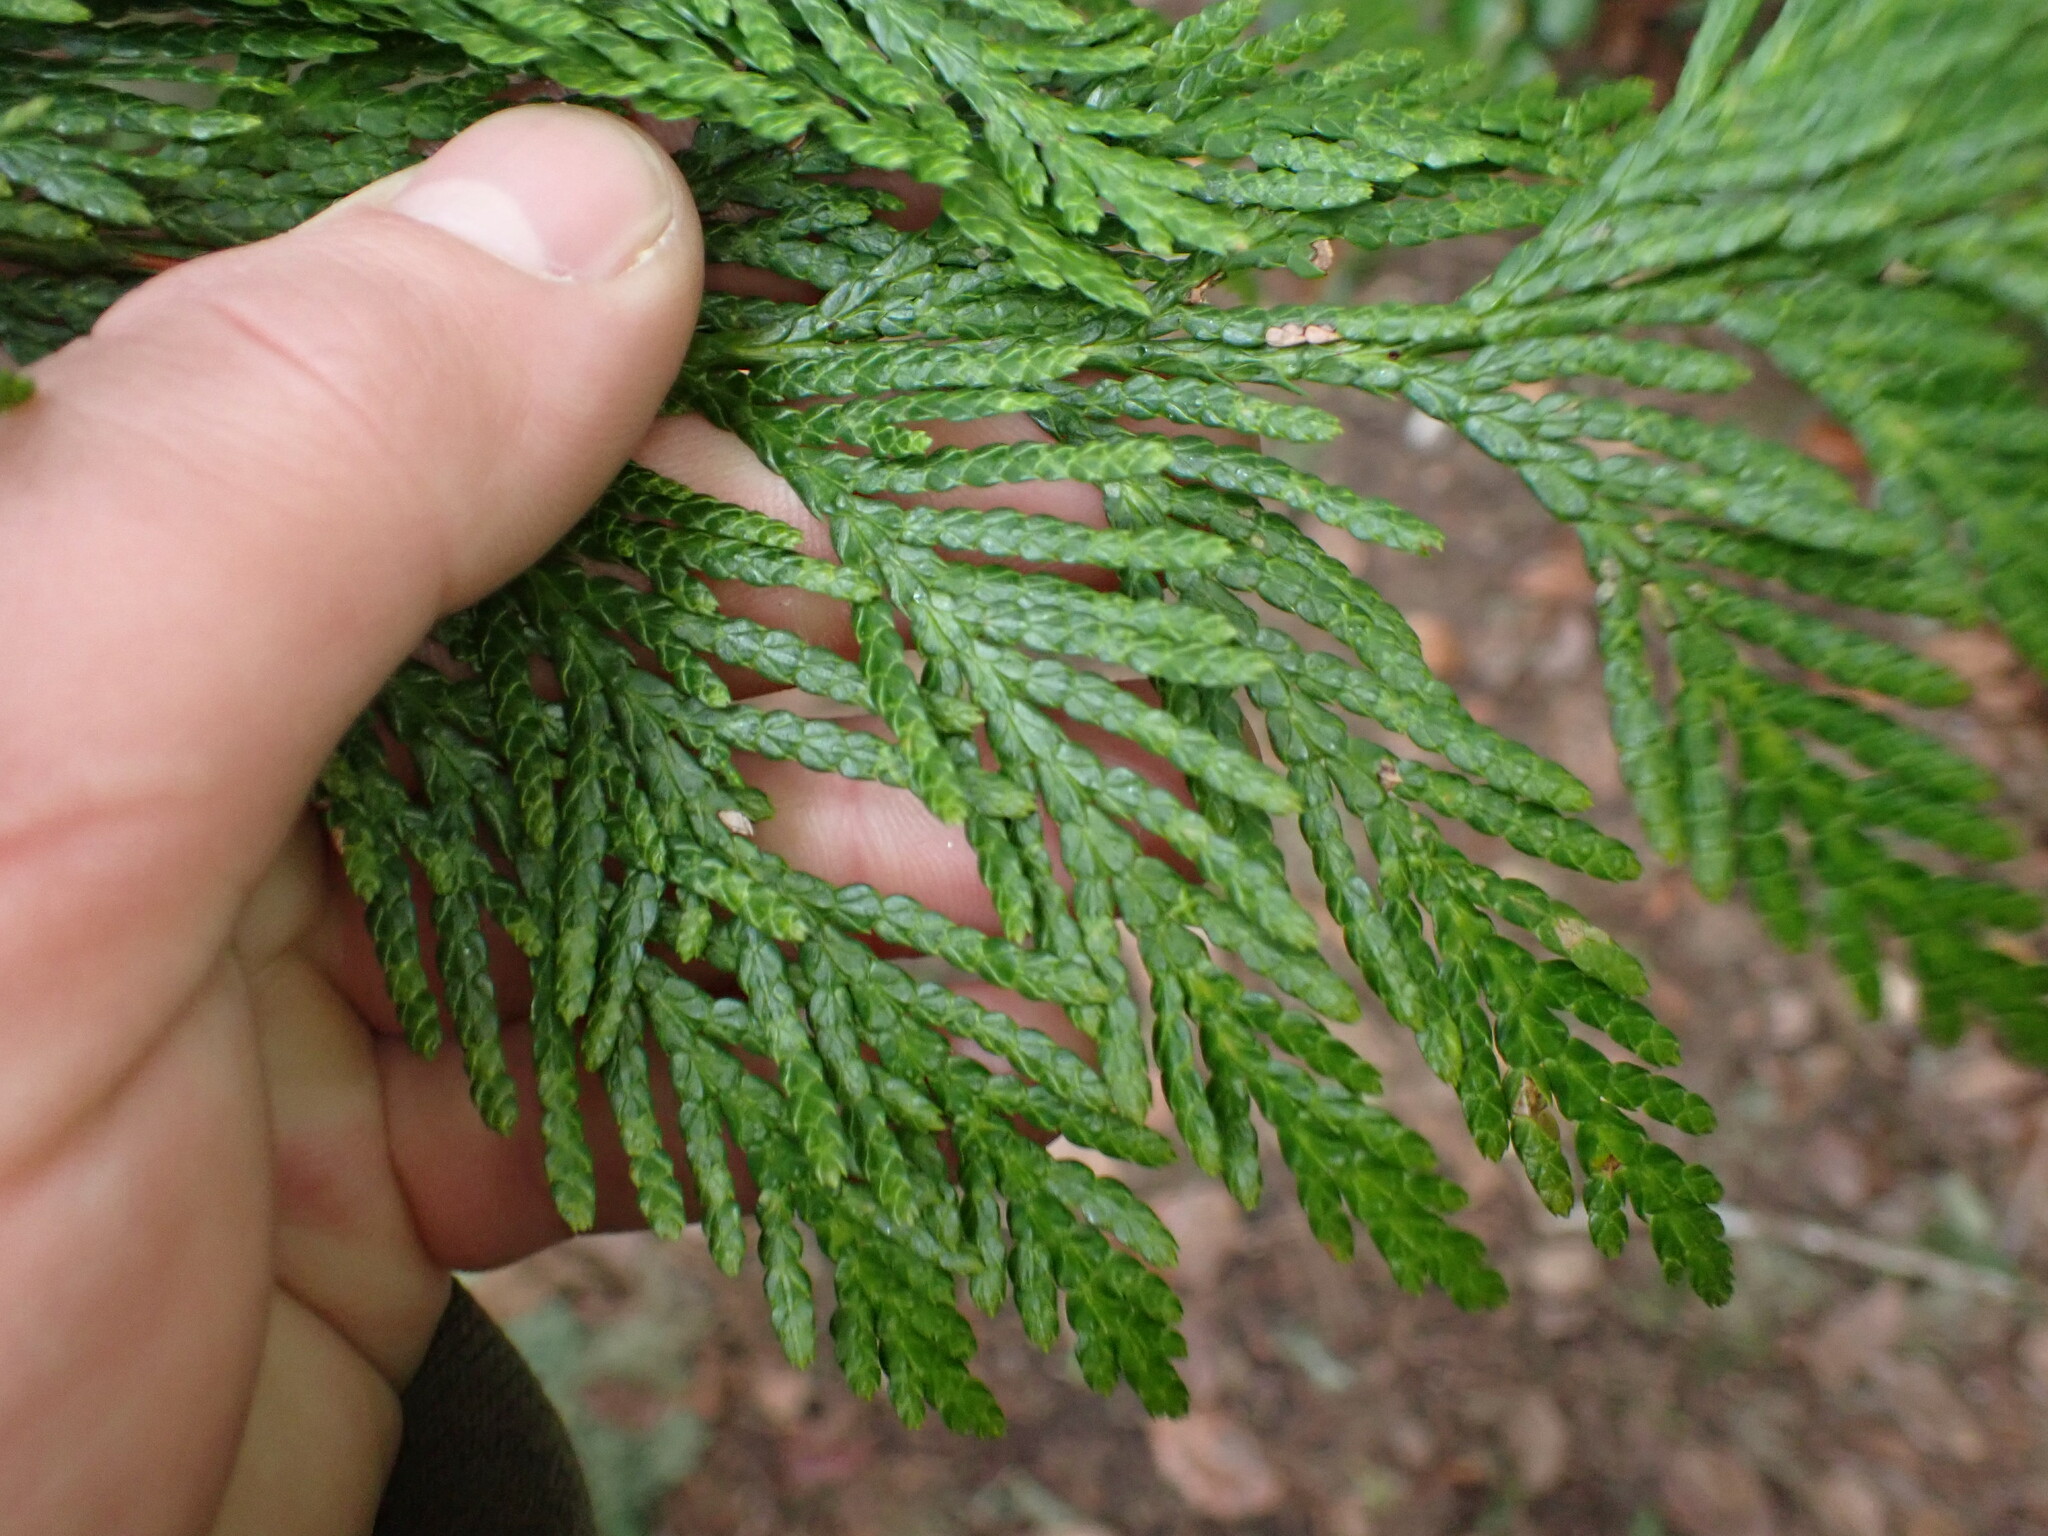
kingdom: Plantae
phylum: Tracheophyta
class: Pinopsida
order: Pinales
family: Cupressaceae
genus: Thuja
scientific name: Thuja plicata
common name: Western red-cedar
